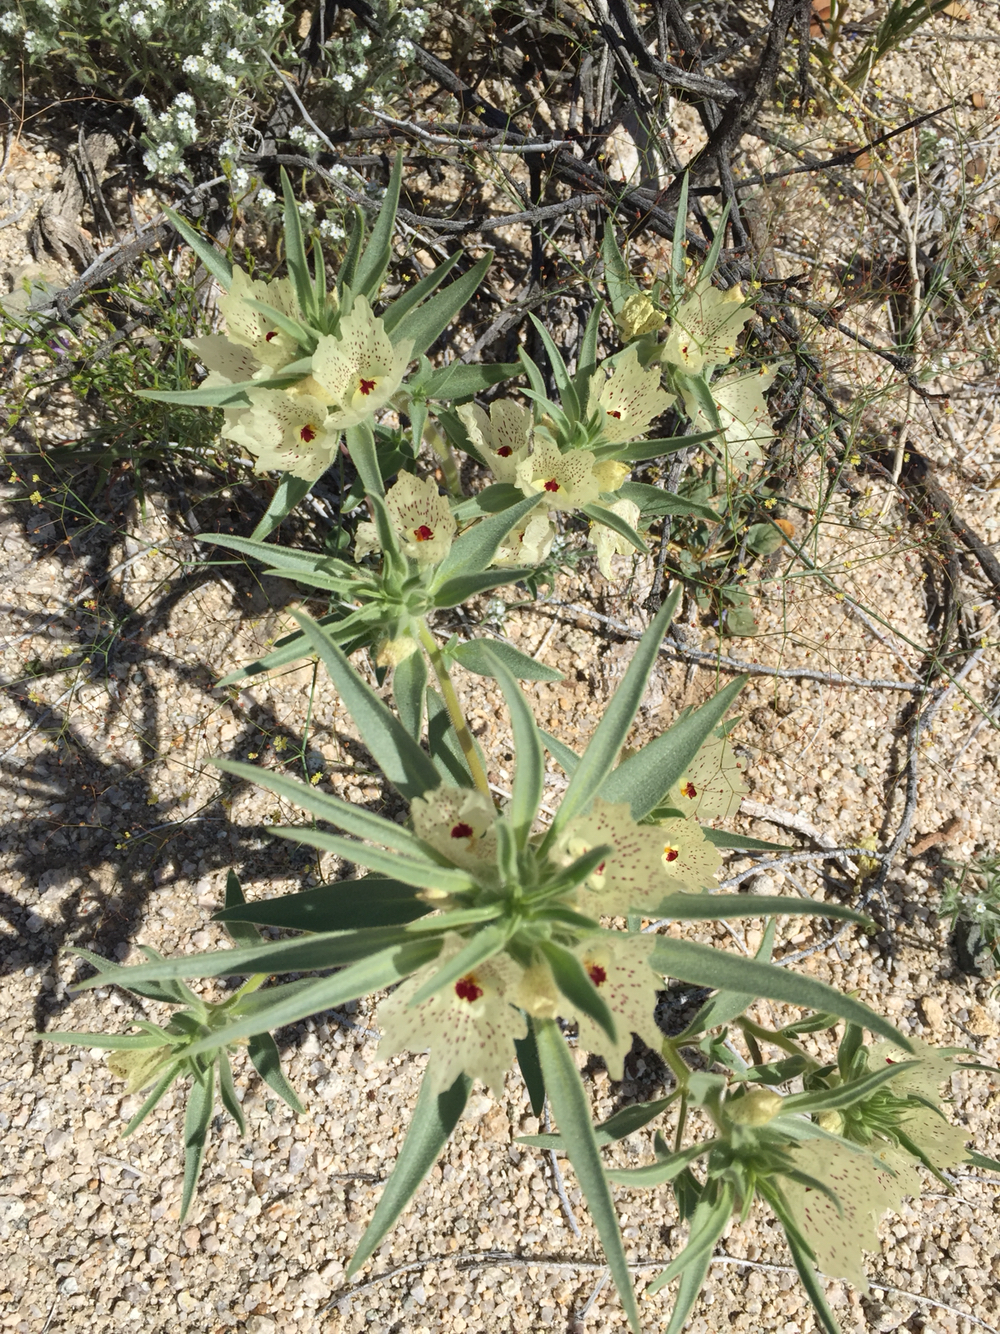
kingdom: Plantae
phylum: Tracheophyta
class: Magnoliopsida
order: Lamiales
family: Plantaginaceae
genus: Mohavea
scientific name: Mohavea confertiflora
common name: Ghost flower
